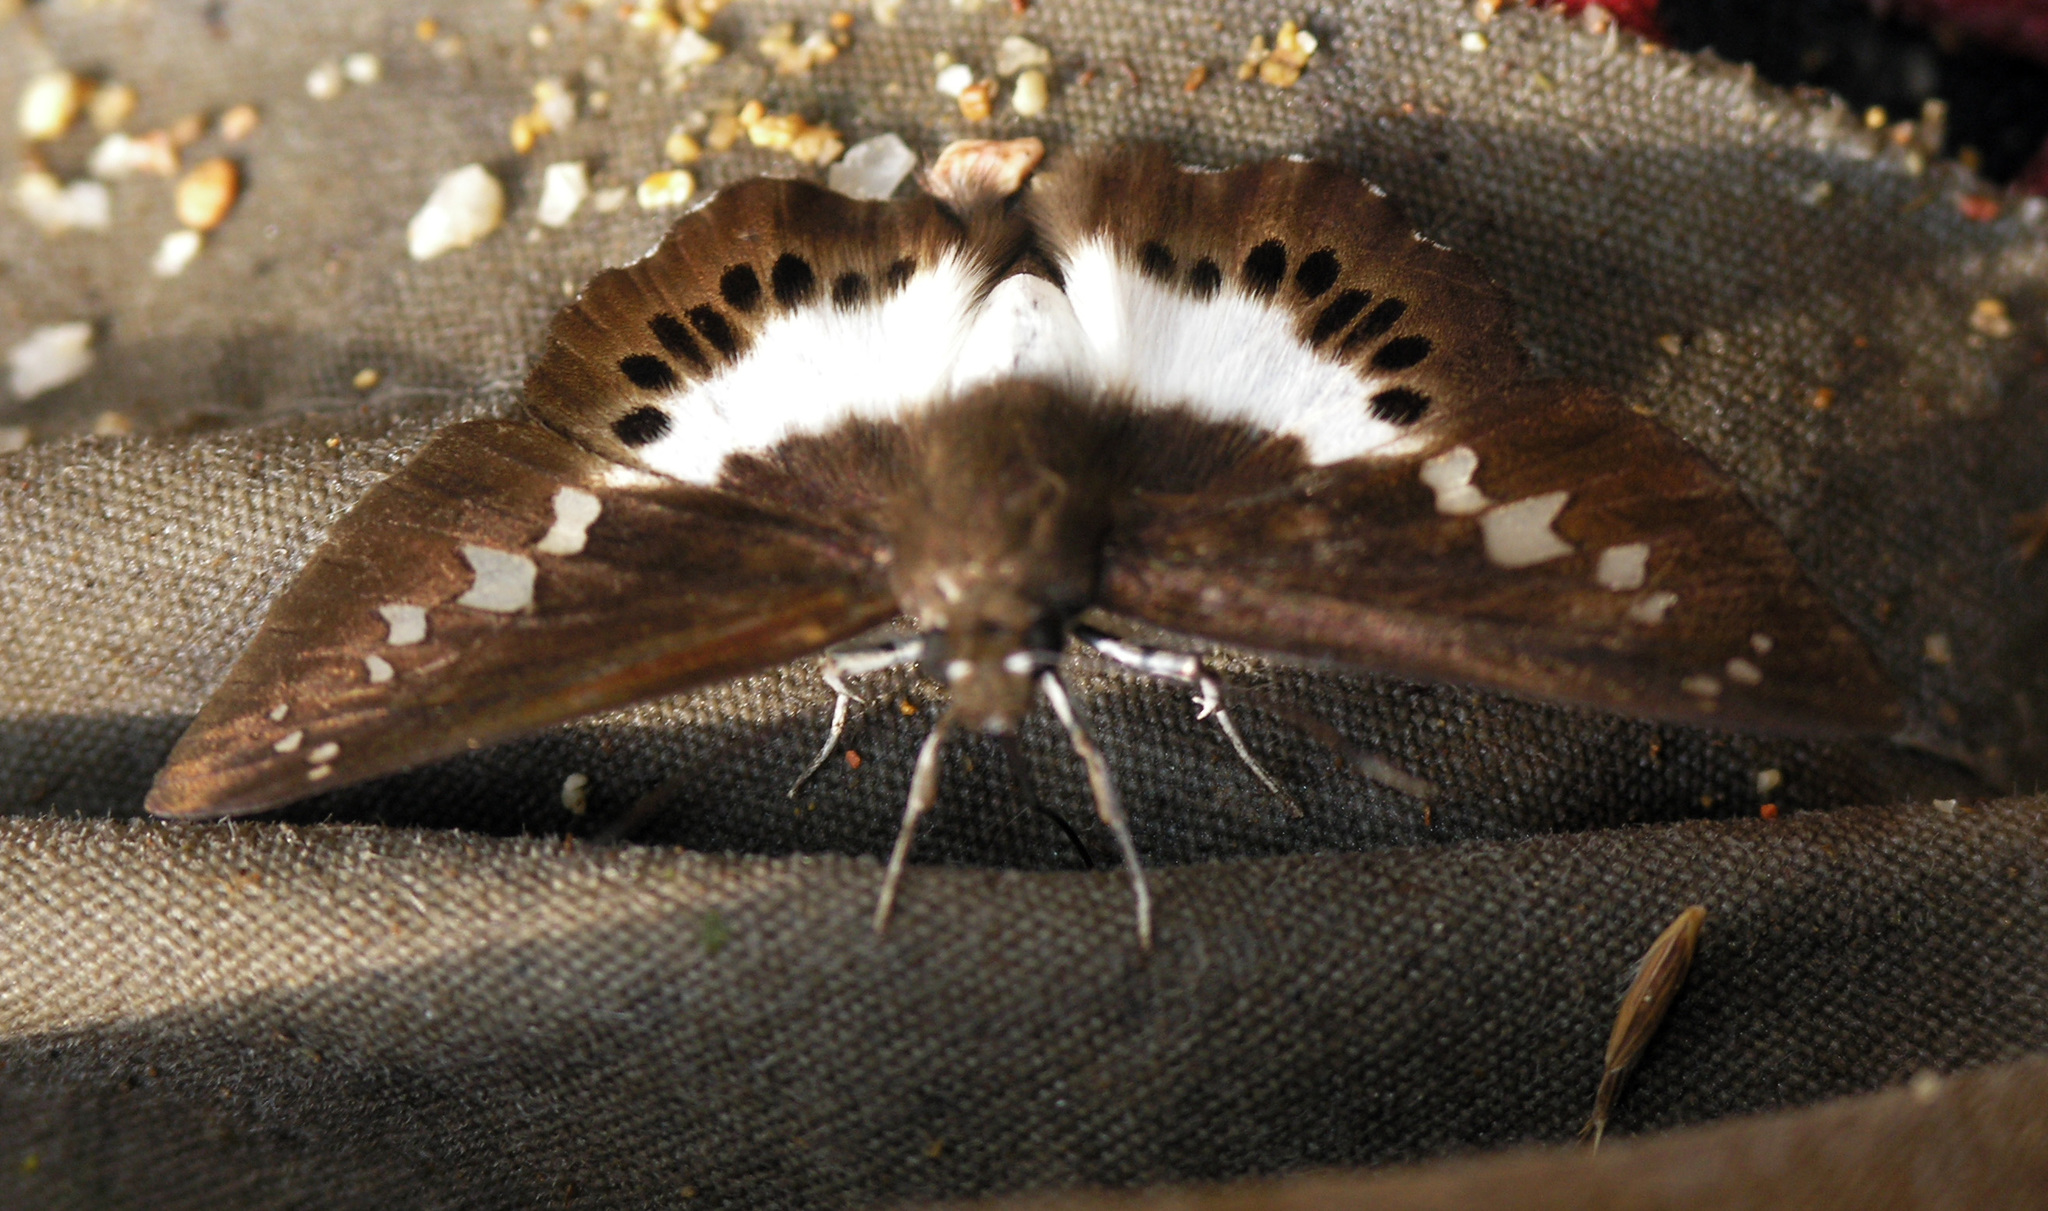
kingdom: Animalia
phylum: Arthropoda
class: Insecta
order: Lepidoptera
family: Hesperiidae
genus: Seseria
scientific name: Seseria sambara
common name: Notched seseria
